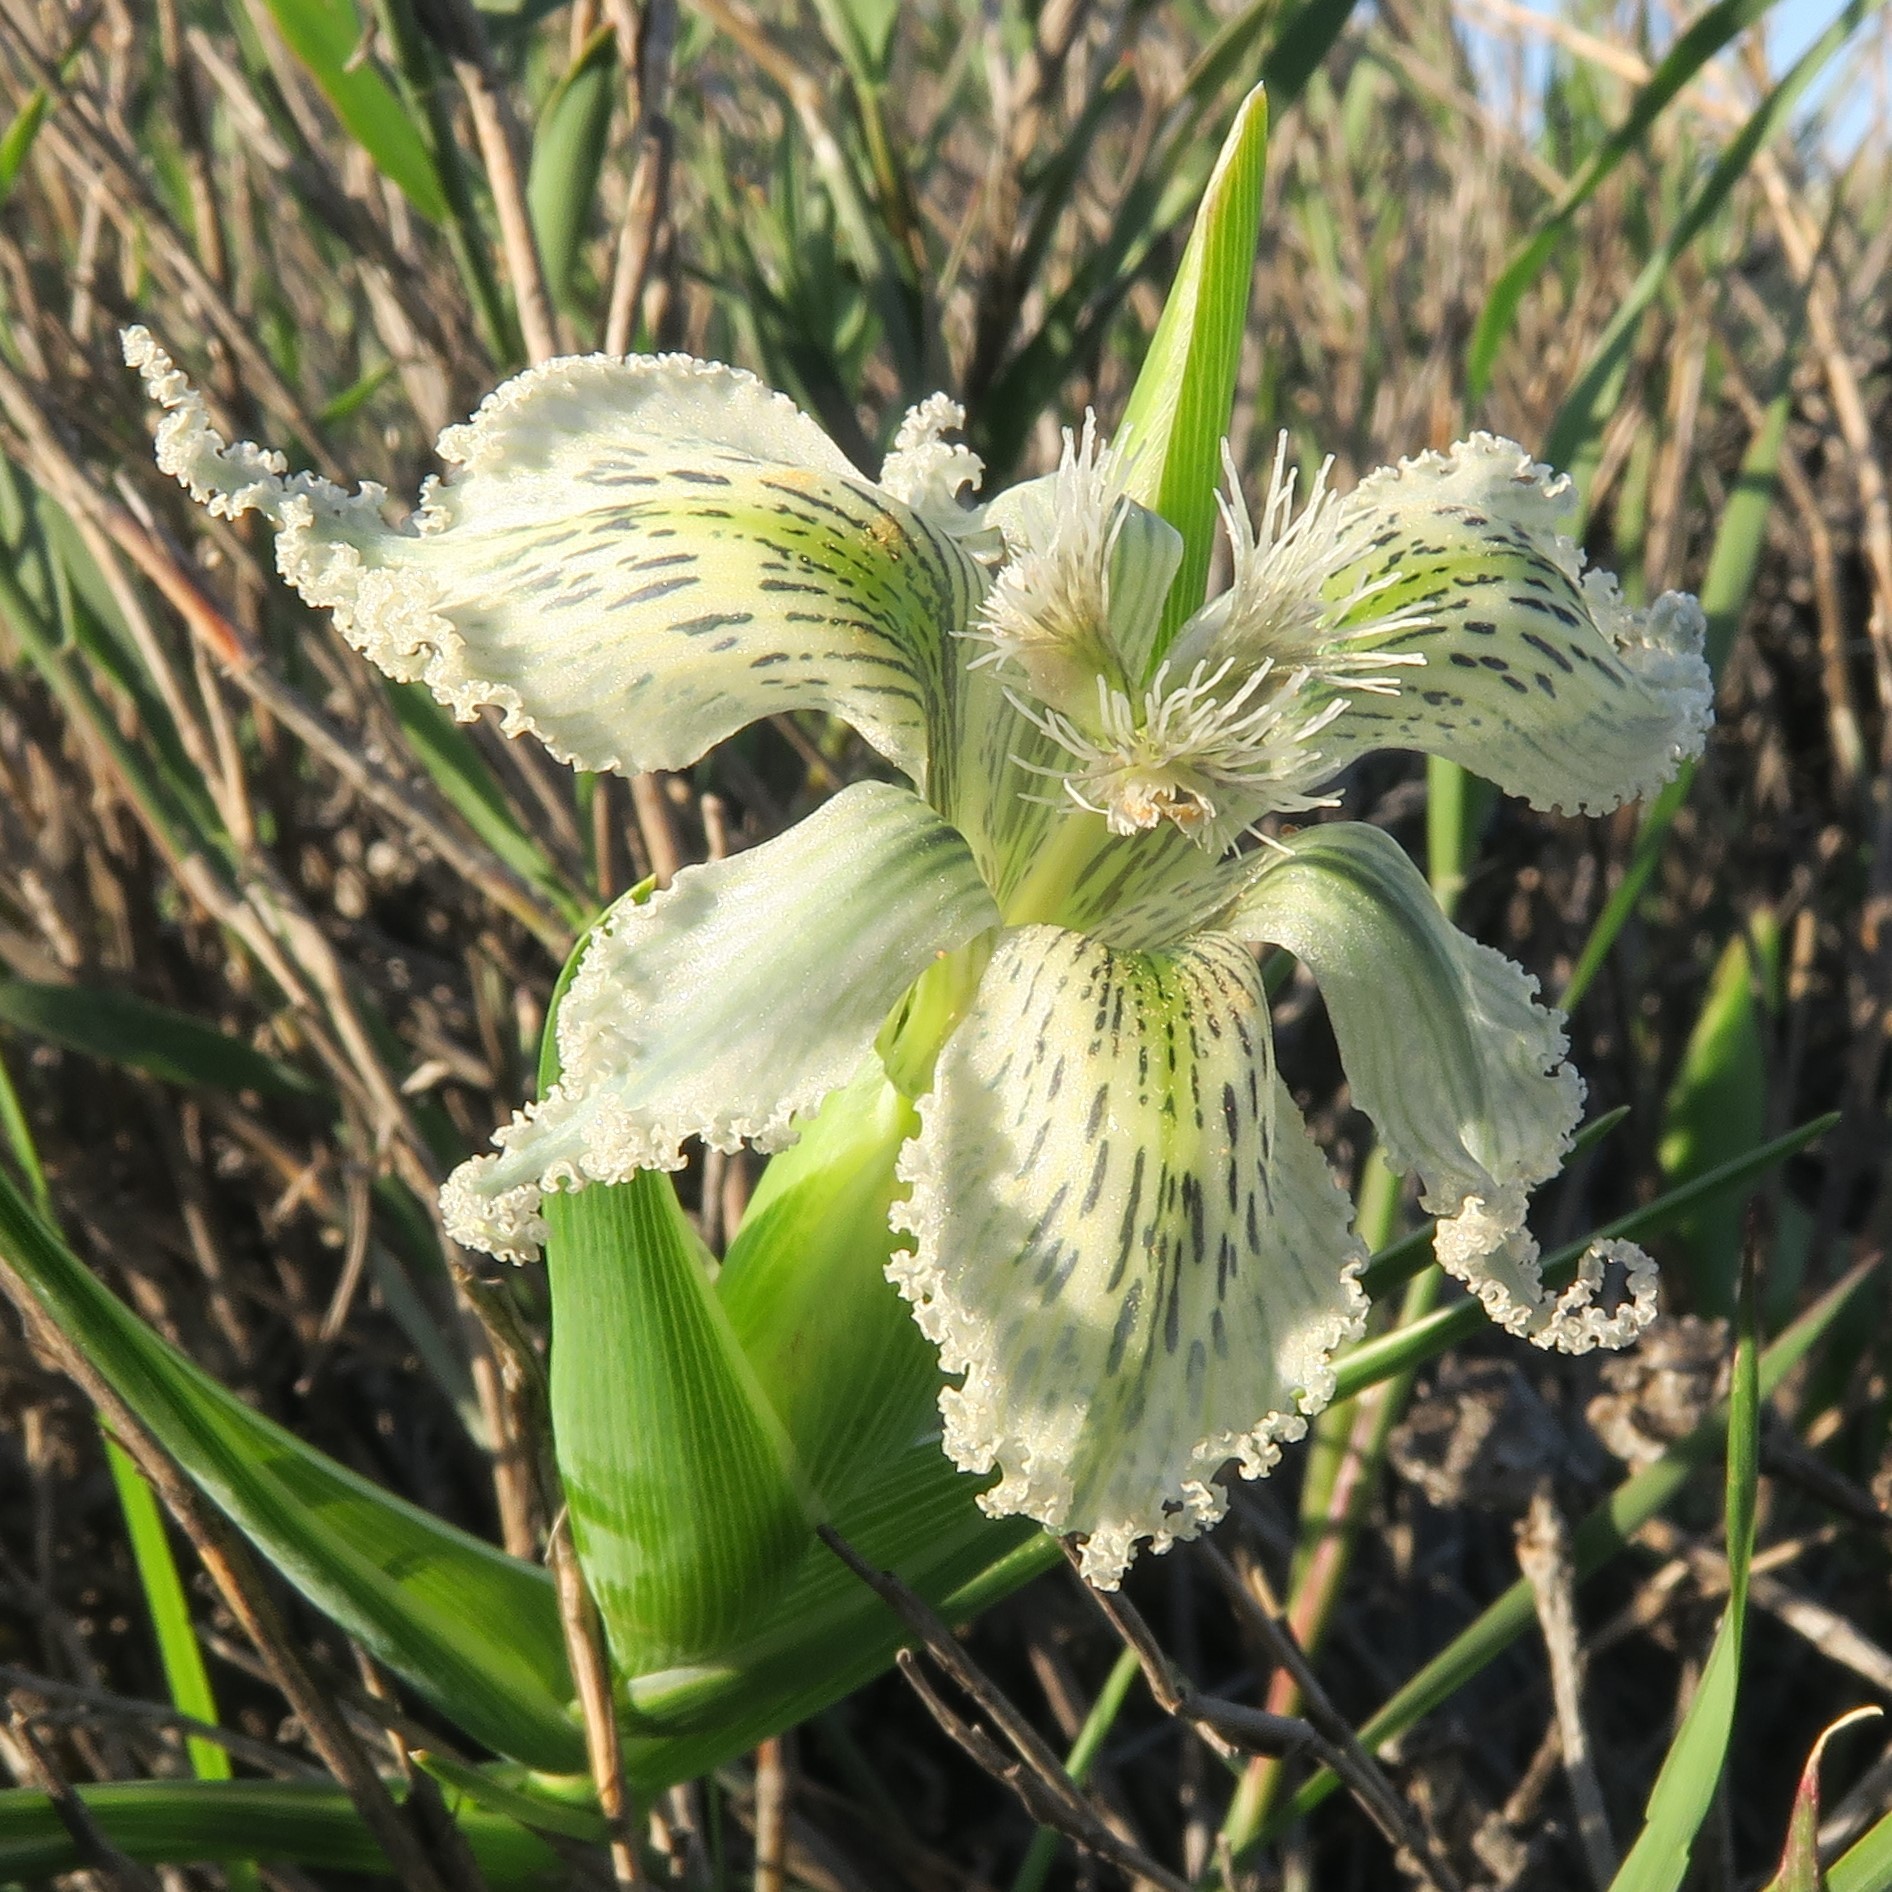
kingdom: Plantae
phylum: Tracheophyta
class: Liliopsida
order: Asparagales
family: Iridaceae
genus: Ferraria
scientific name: Ferraria ferrariola
